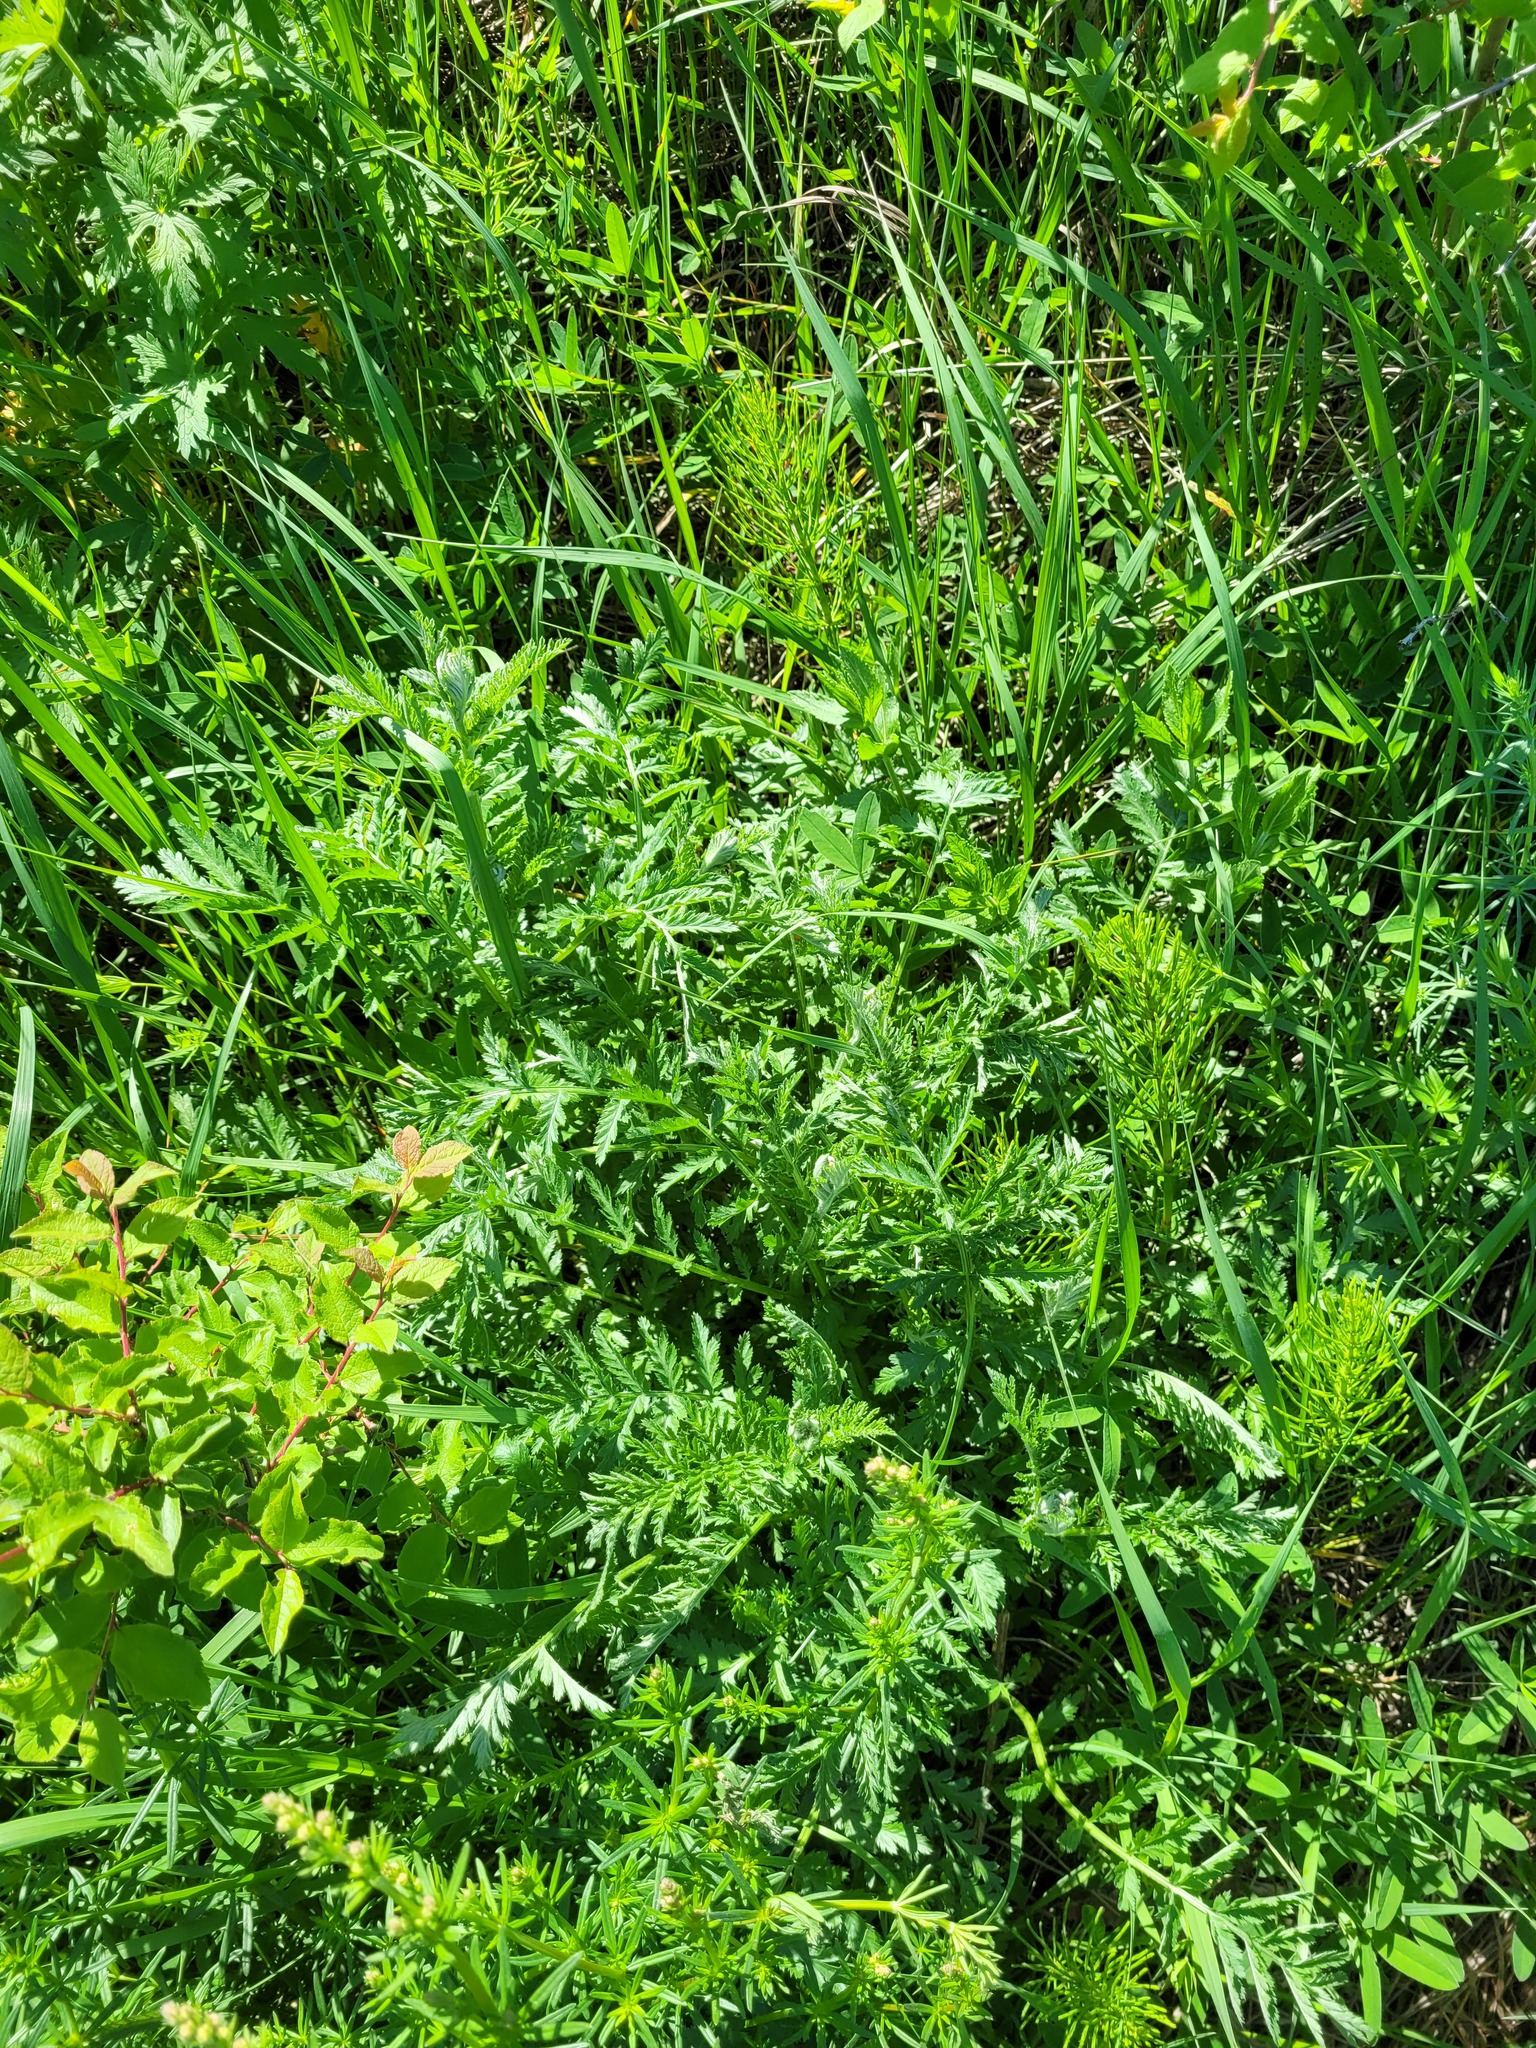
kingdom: Plantae
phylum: Tracheophyta
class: Magnoliopsida
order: Asterales
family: Asteraceae
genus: Tanacetum
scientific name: Tanacetum corymbosum
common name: Scentless feverfew
